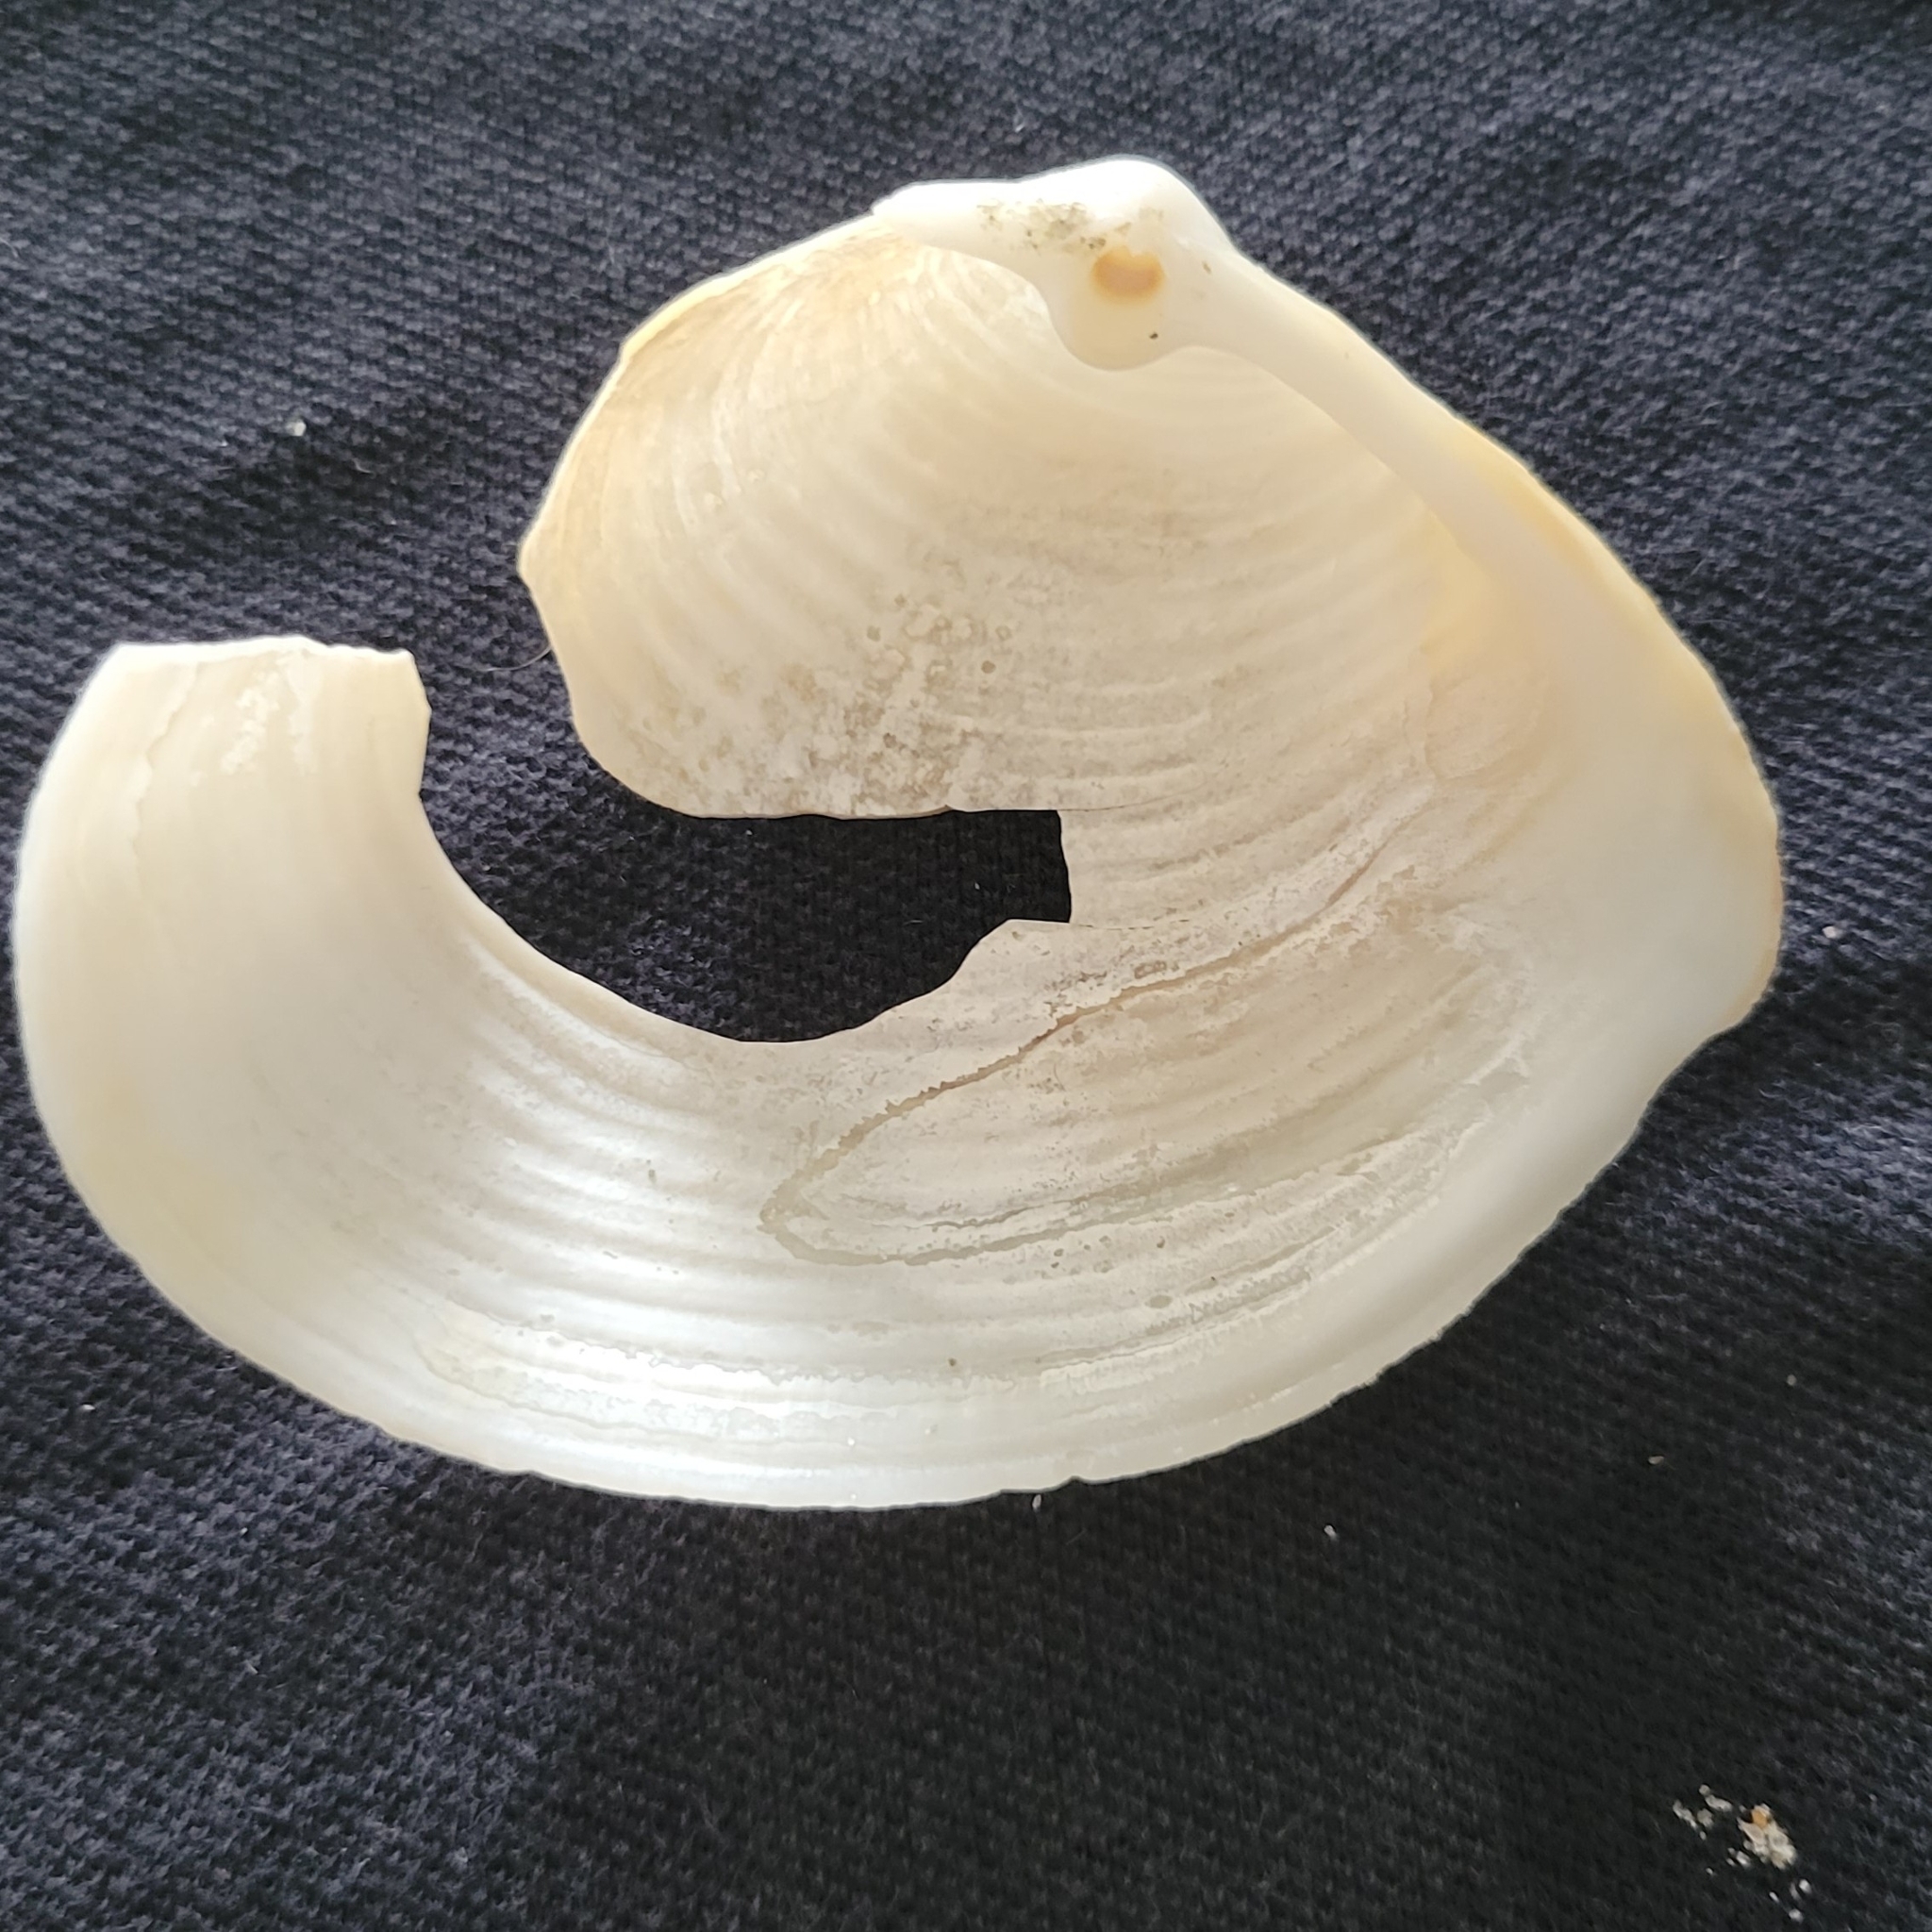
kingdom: Animalia
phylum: Mollusca
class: Bivalvia
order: Venerida
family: Anatinellidae
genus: Raeta
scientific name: Raeta plicatella
